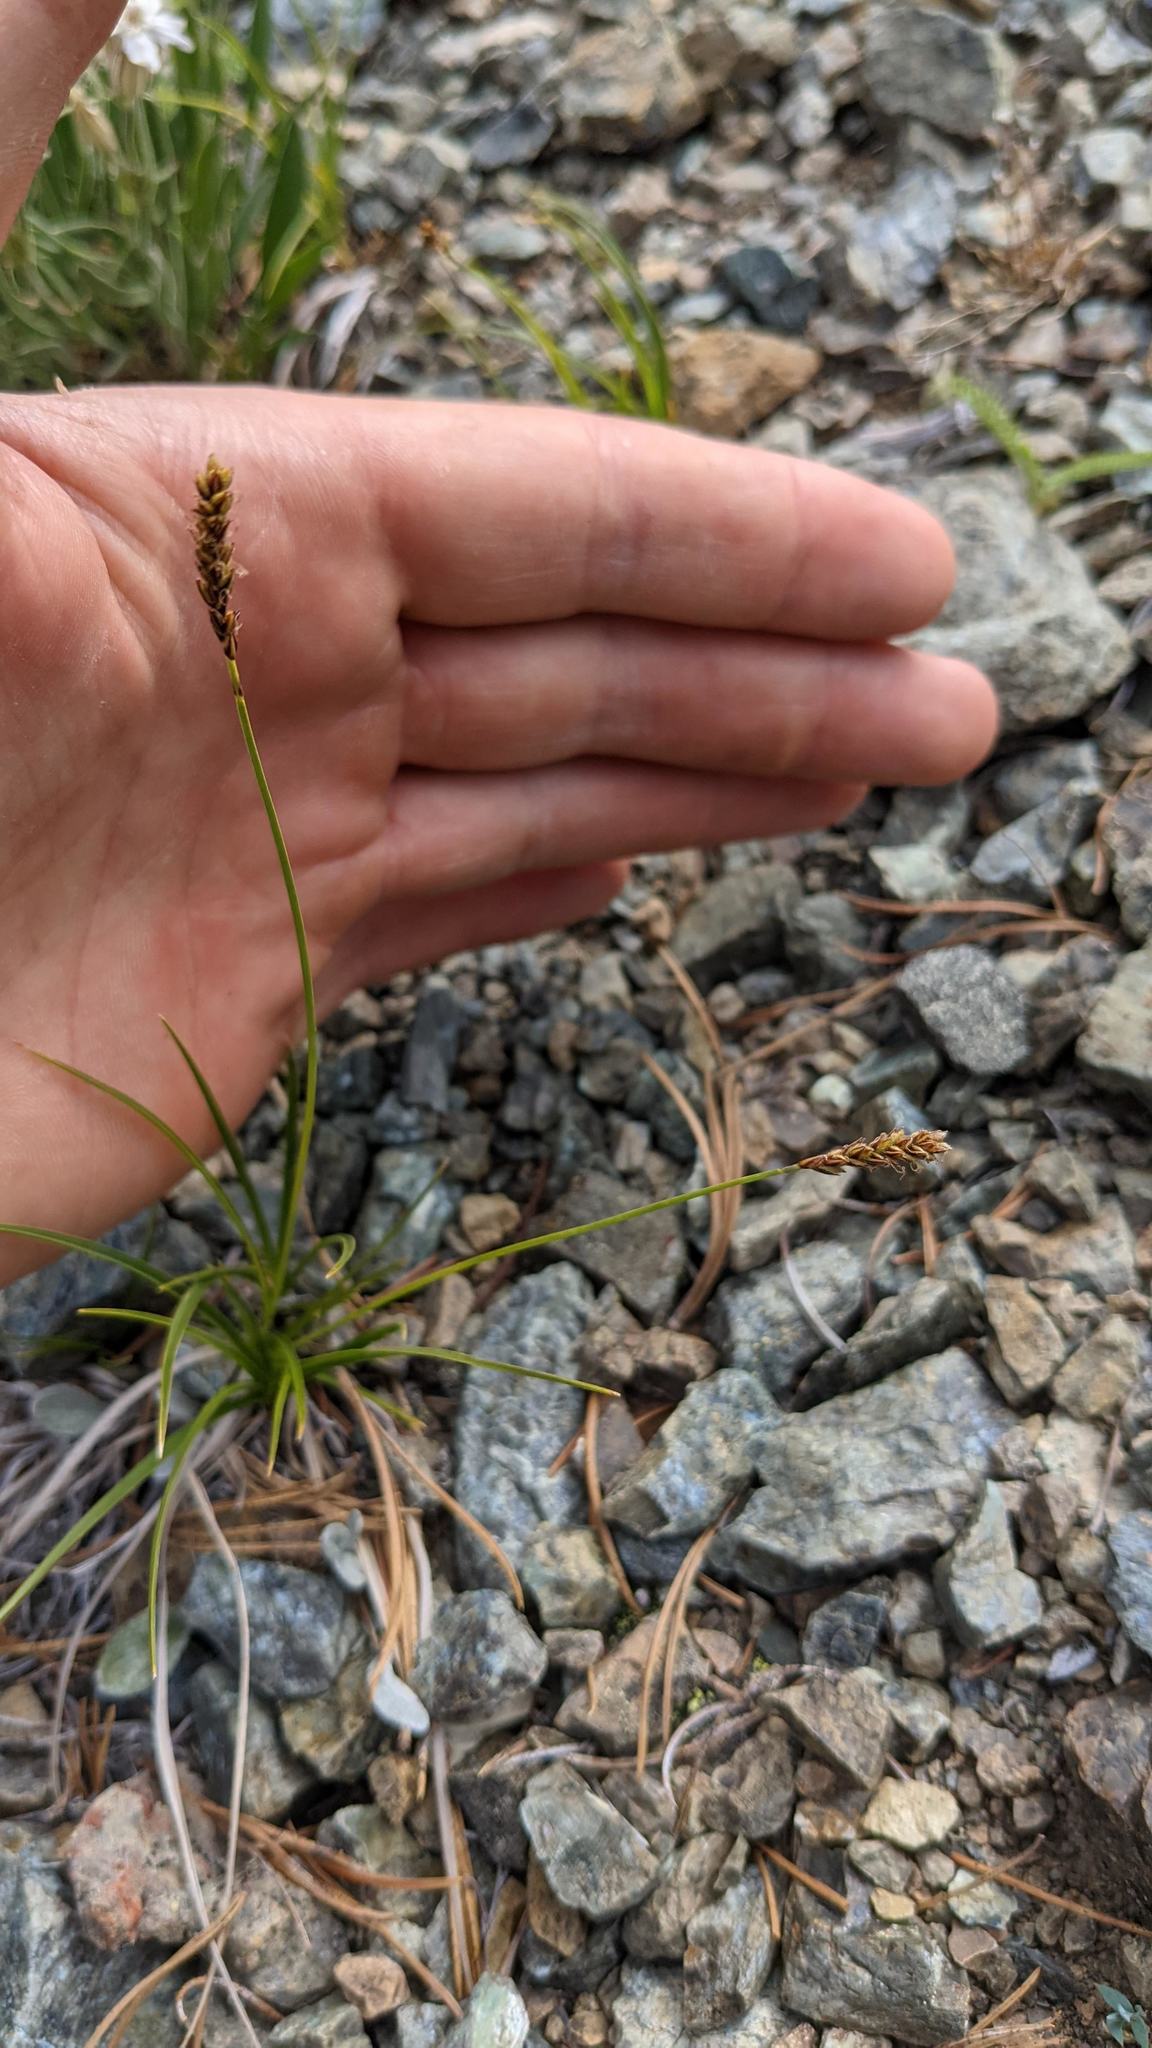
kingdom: Plantae
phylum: Tracheophyta
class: Liliopsida
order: Poales
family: Cyperaceae
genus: Carex
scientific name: Carex scirpoidea
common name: Canada single-spike sedge
